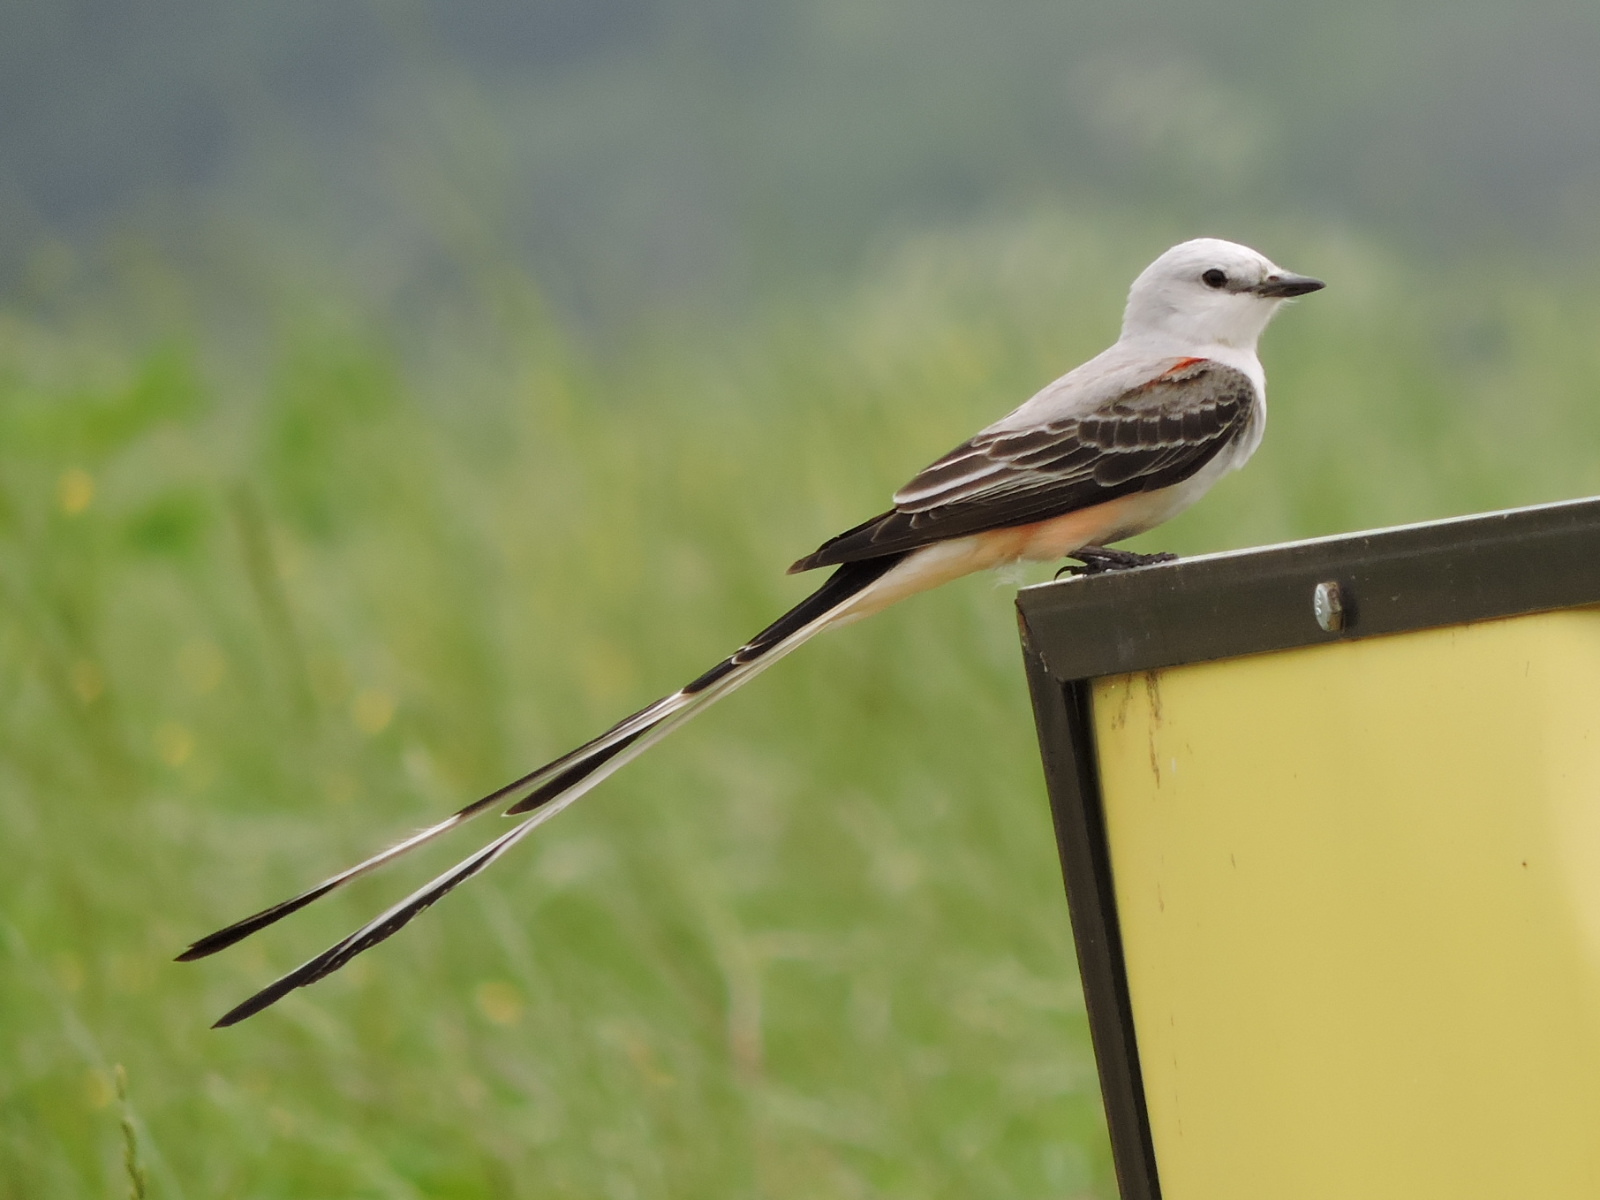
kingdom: Animalia
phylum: Chordata
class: Aves
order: Passeriformes
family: Tyrannidae
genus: Tyrannus
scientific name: Tyrannus forficatus
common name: Scissor-tailed flycatcher
